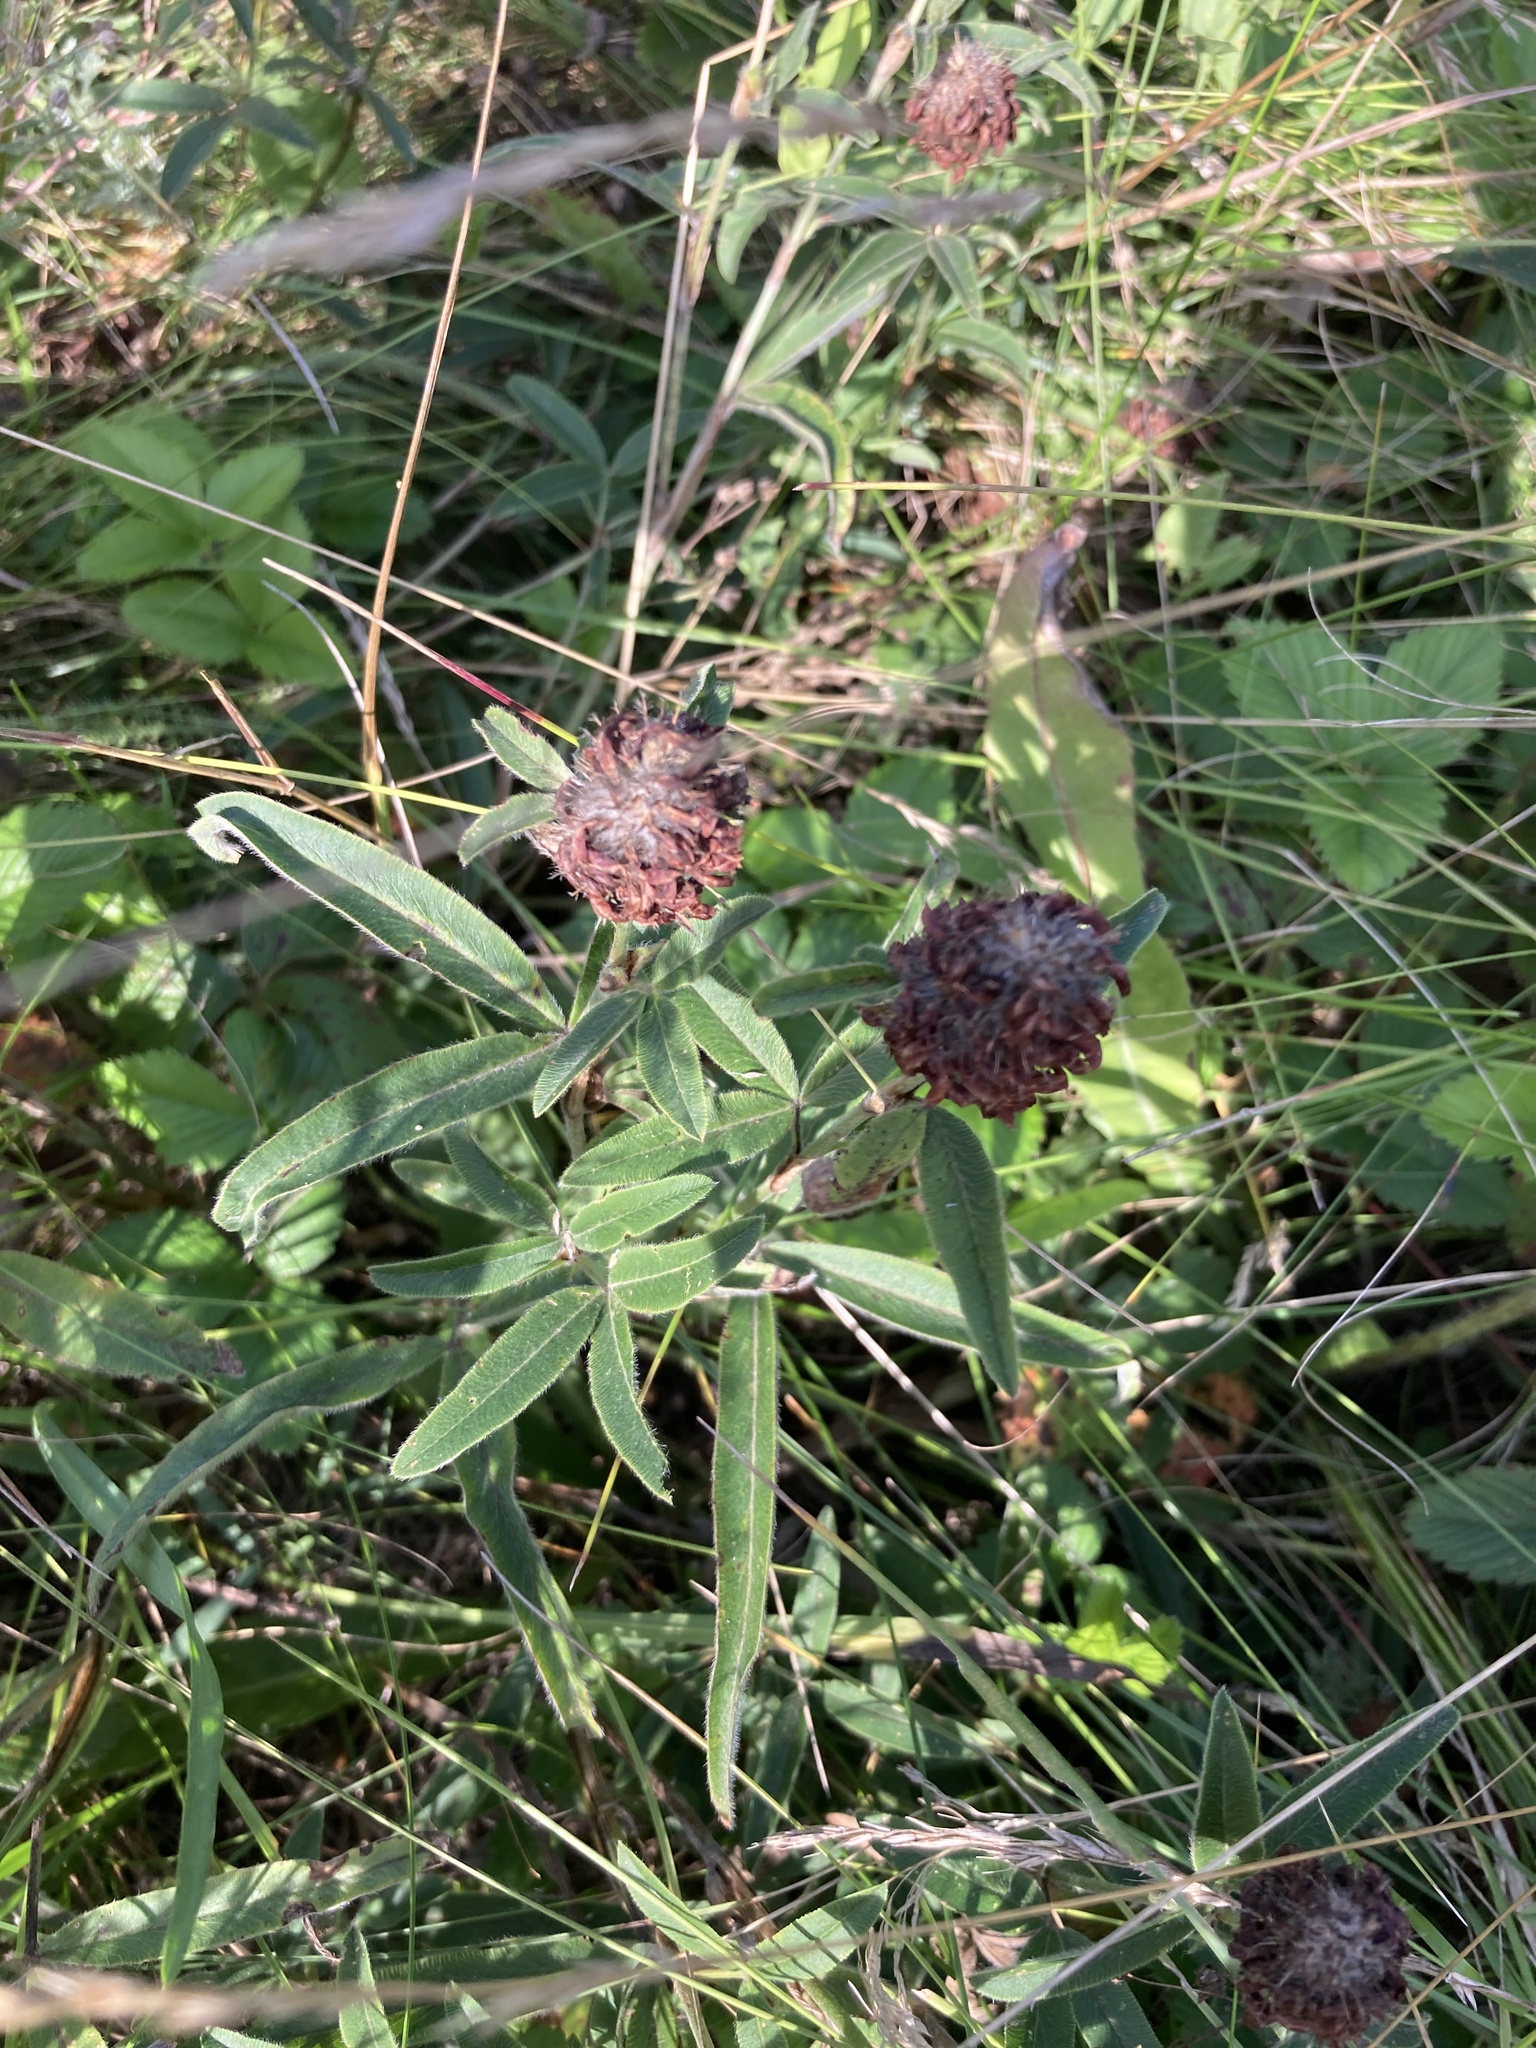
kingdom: Plantae
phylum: Tracheophyta
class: Magnoliopsida
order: Fabales
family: Fabaceae
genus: Trifolium
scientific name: Trifolium alpestre
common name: Owl-head clover
